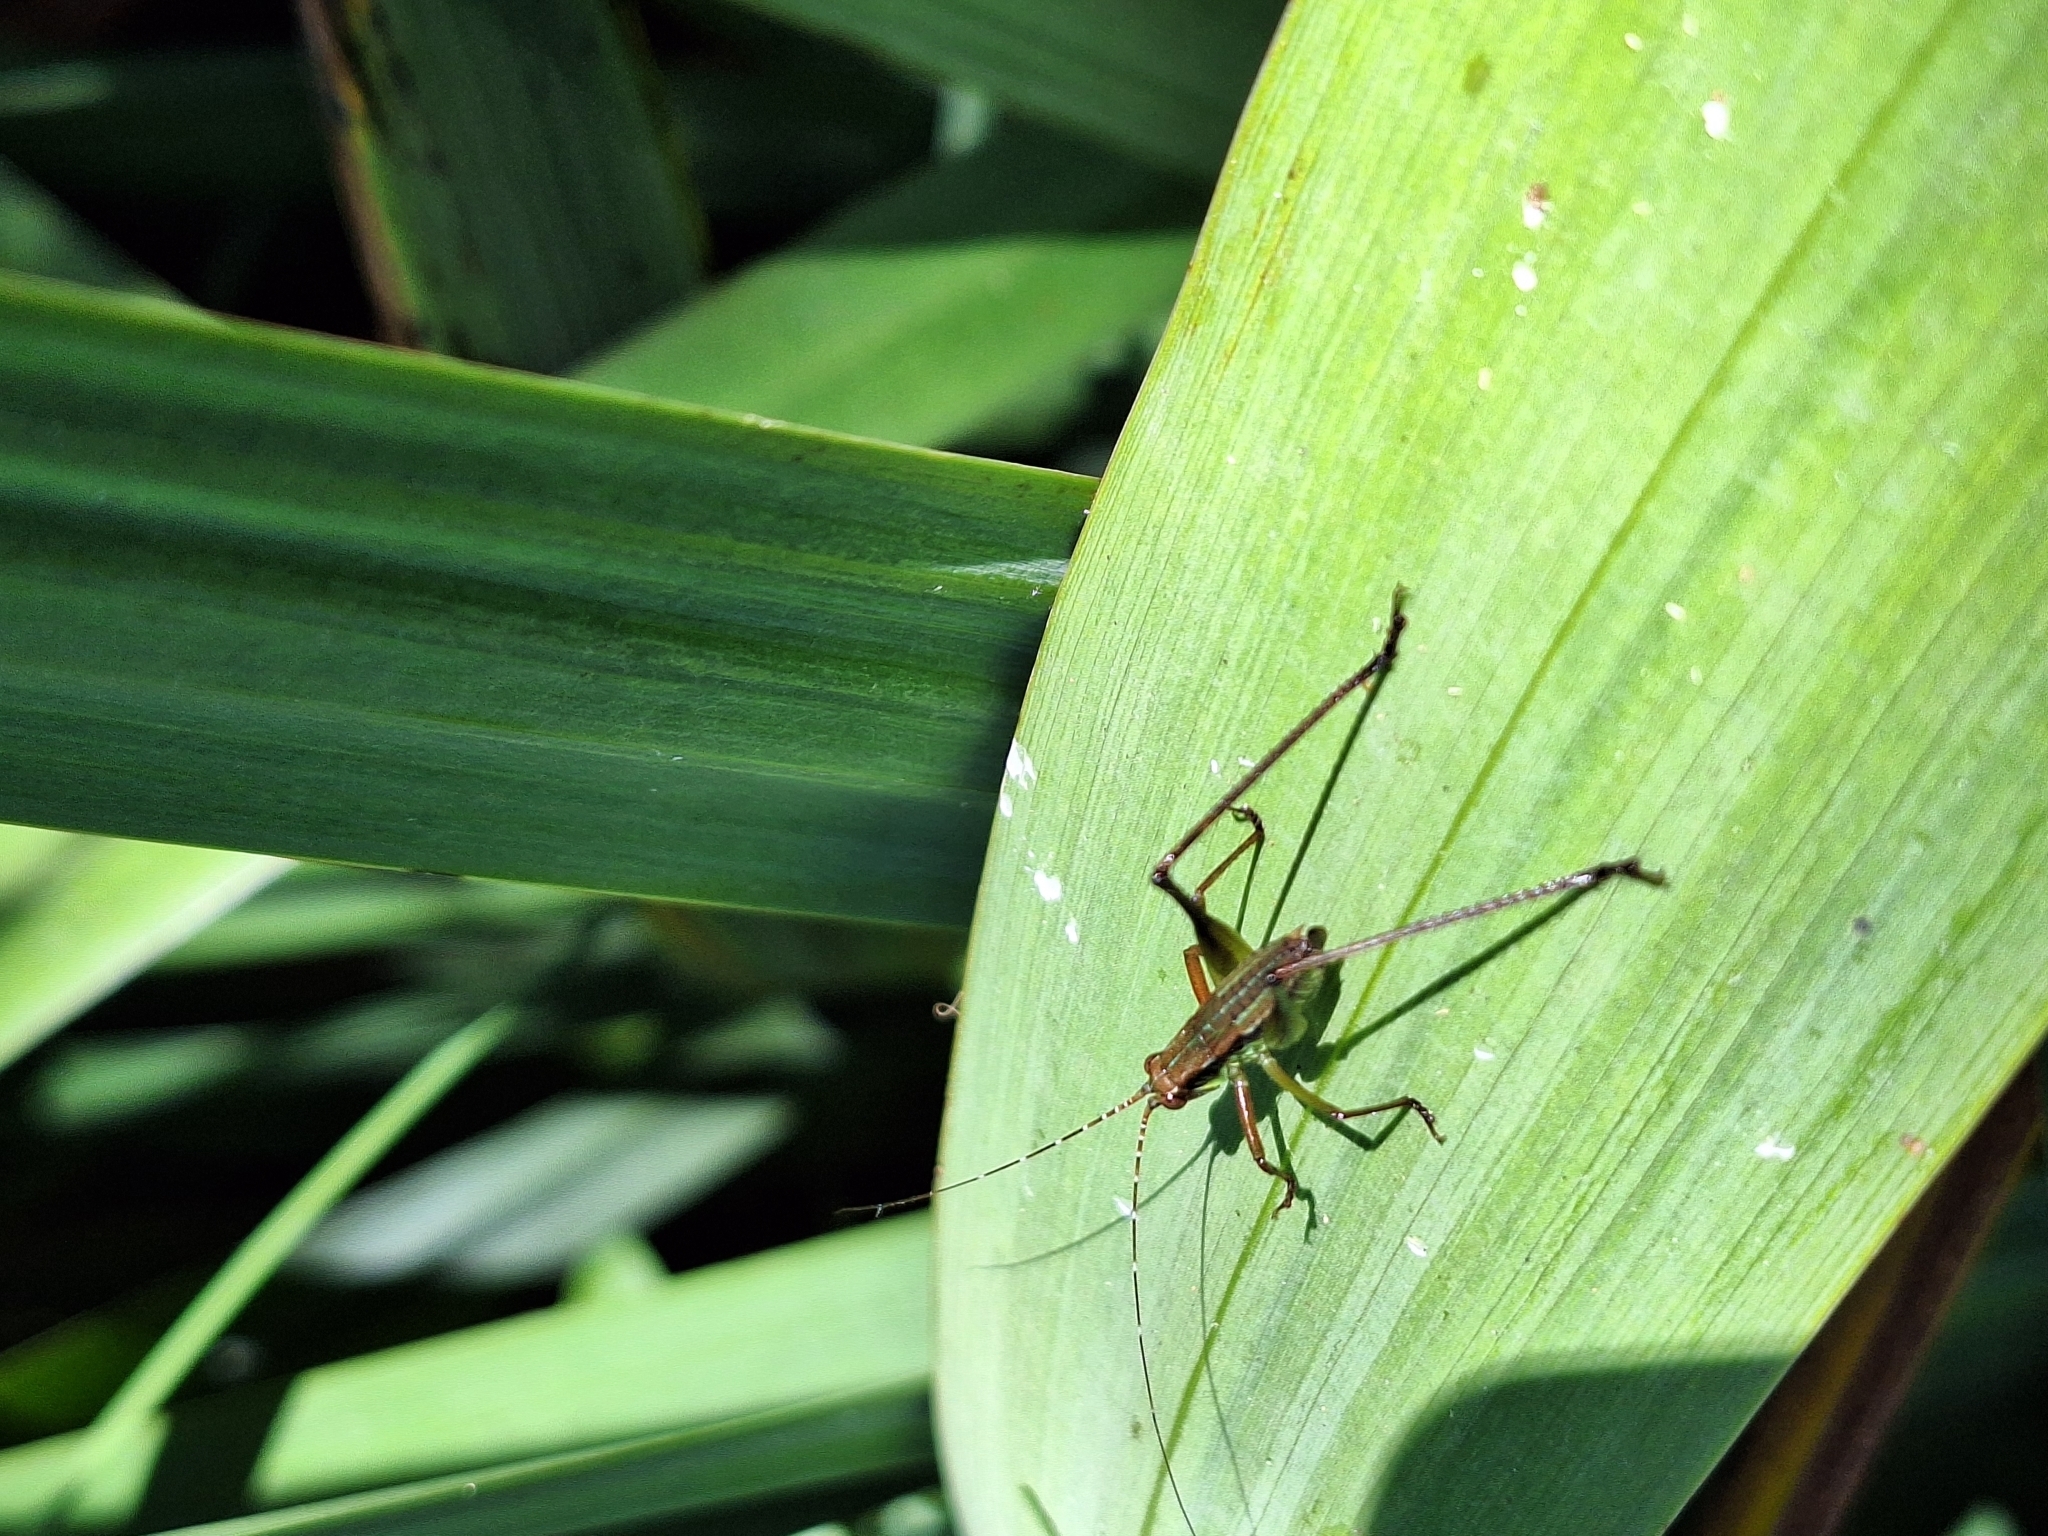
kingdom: Animalia
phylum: Arthropoda
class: Insecta
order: Orthoptera
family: Tettigoniidae
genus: Theudoria
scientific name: Theudoria melanocnemis
